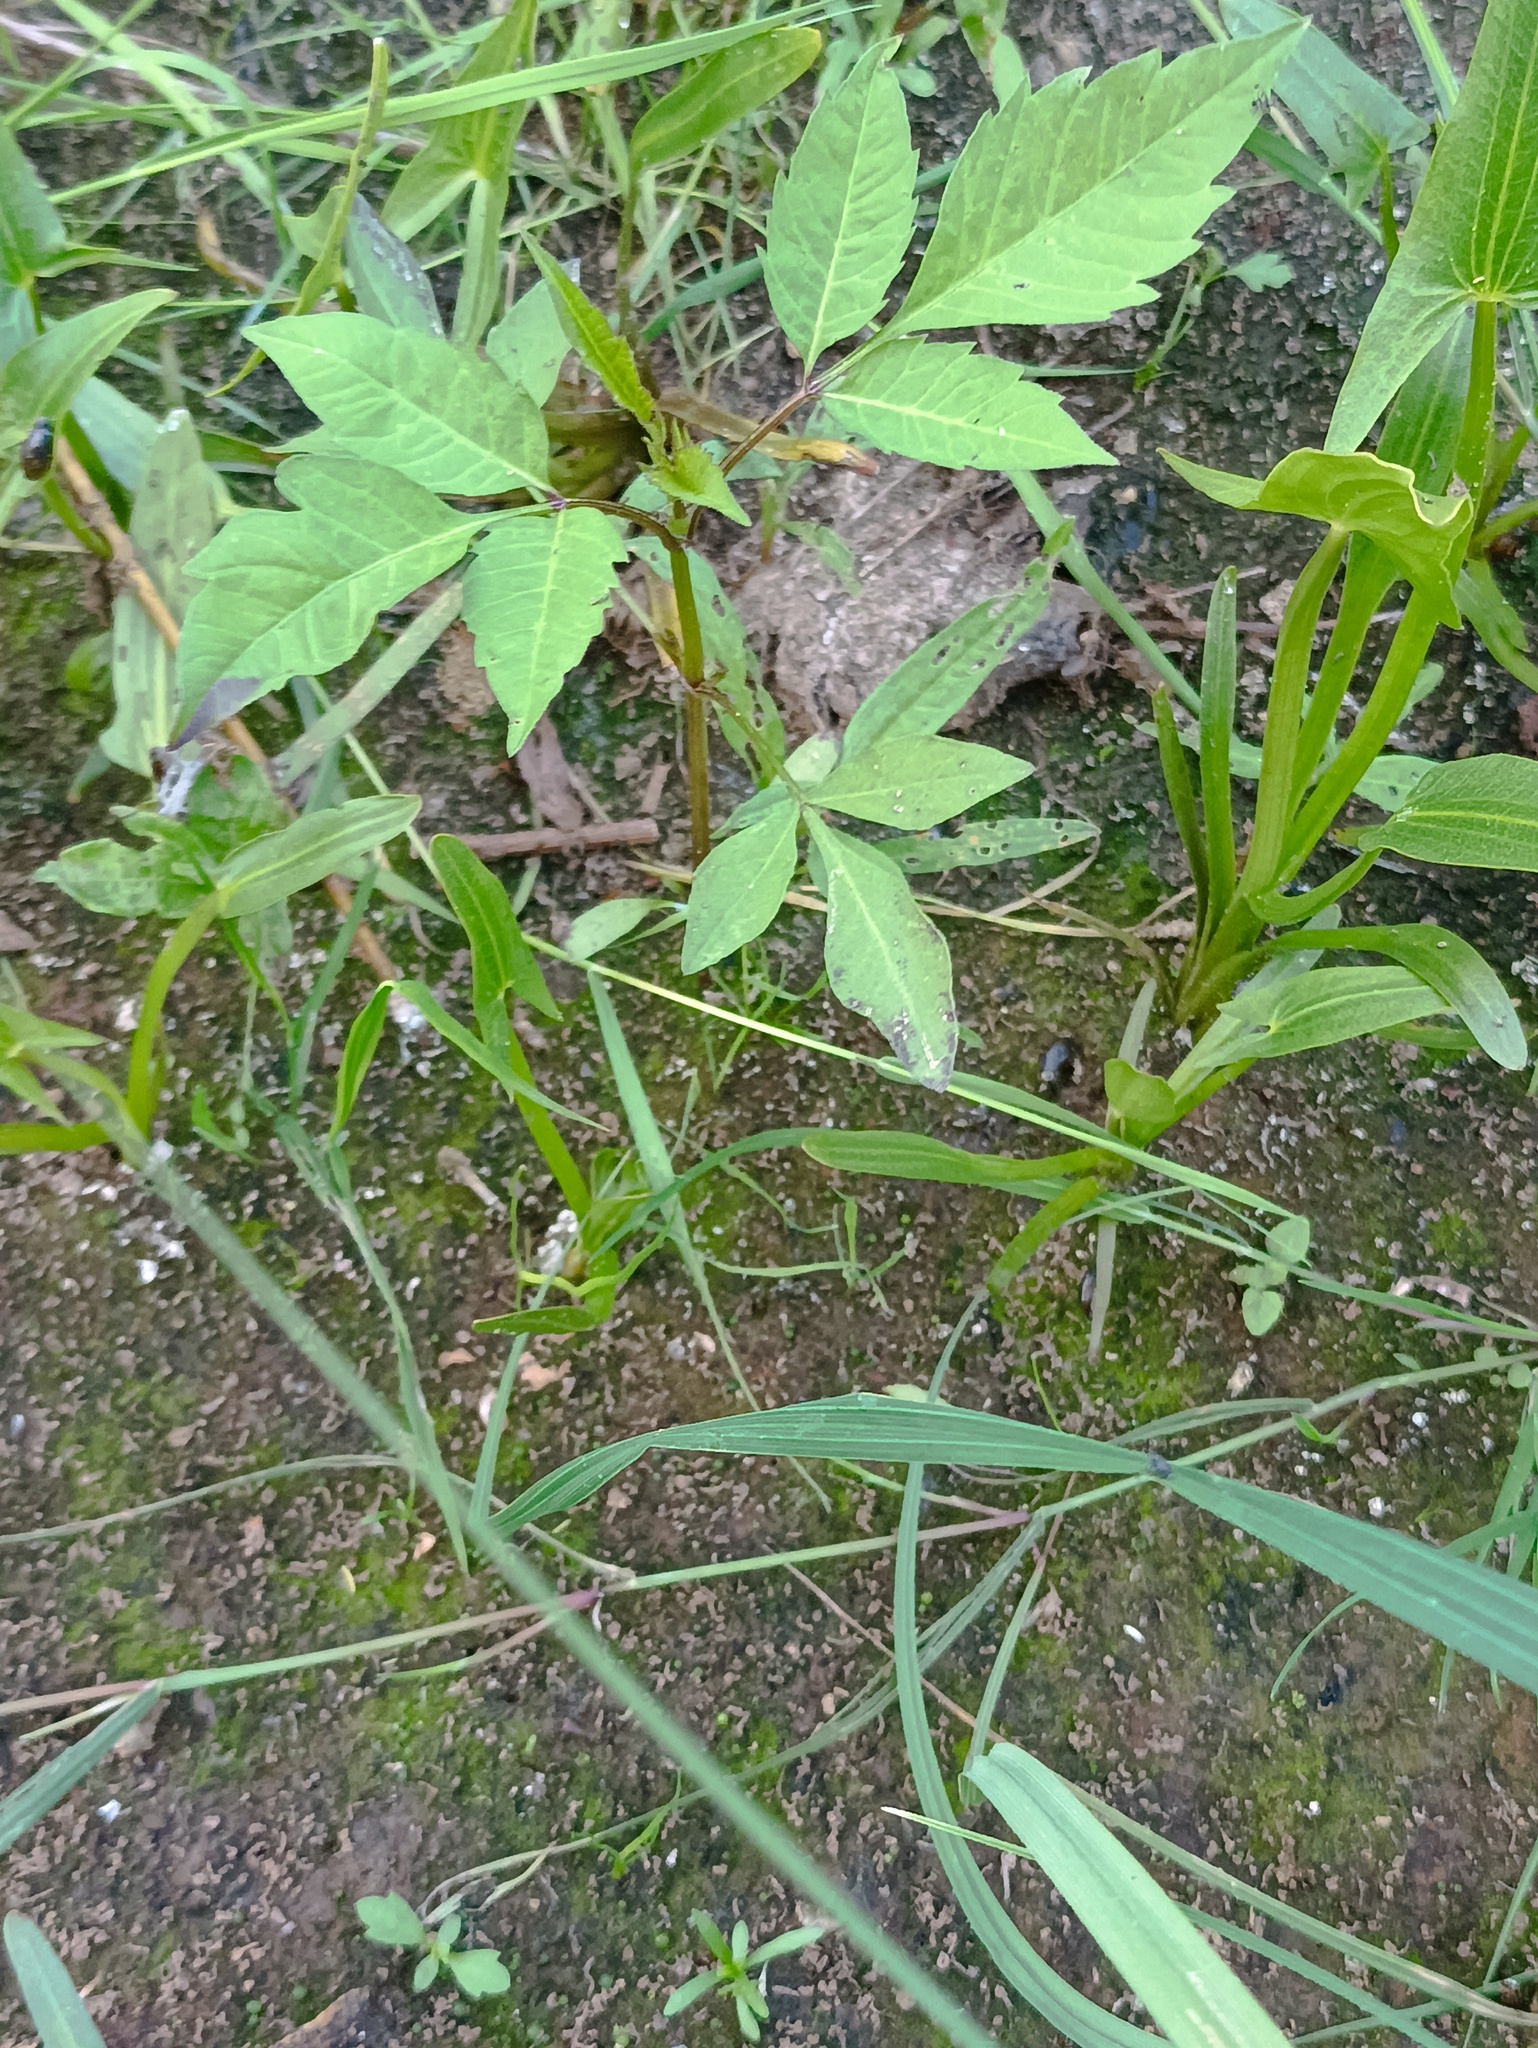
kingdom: Plantae
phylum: Tracheophyta
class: Magnoliopsida
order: Asterales
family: Asteraceae
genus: Bidens
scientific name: Bidens frondosa
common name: Beggarticks
